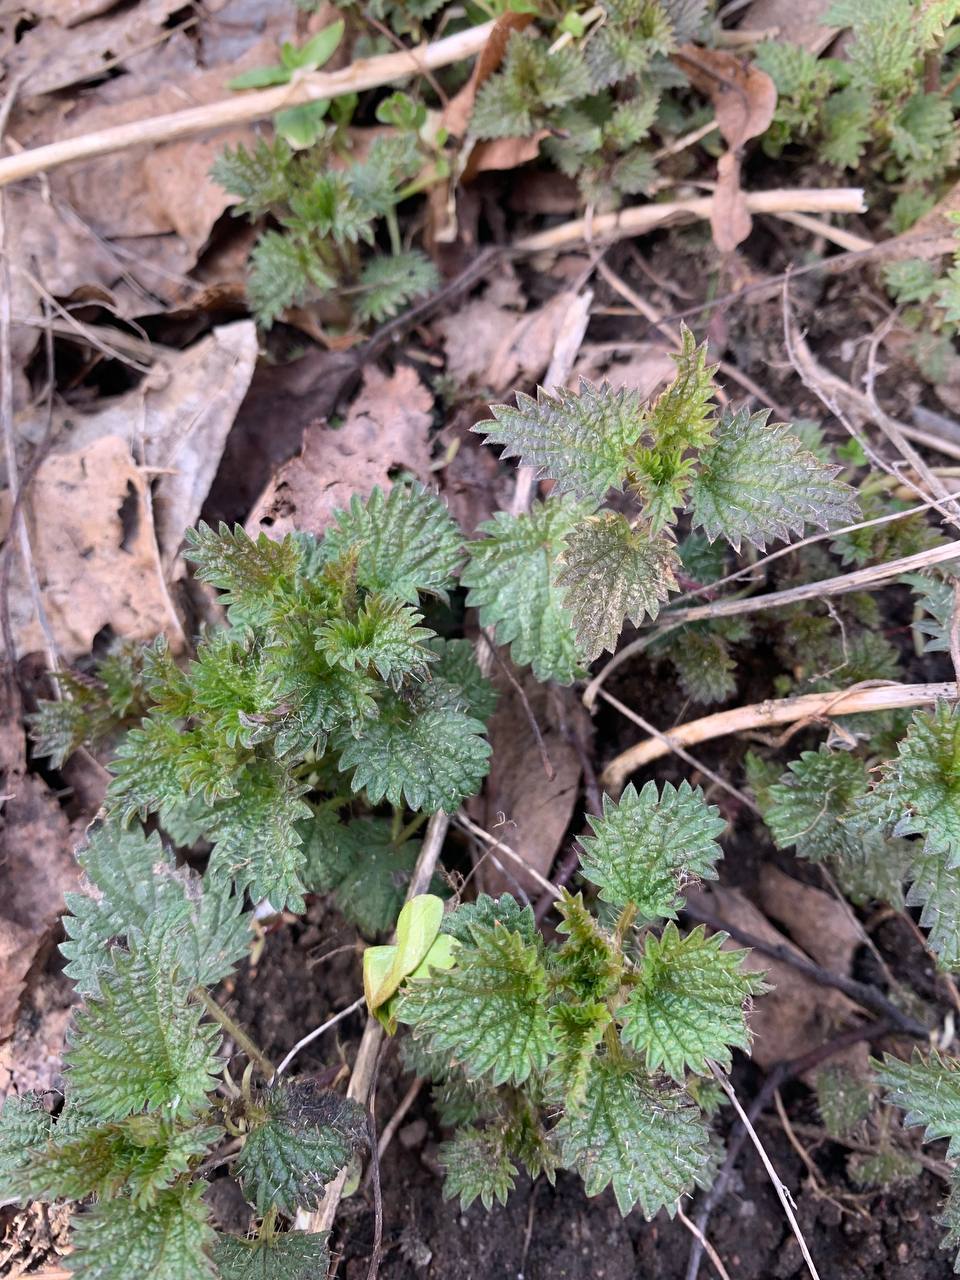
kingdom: Plantae
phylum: Tracheophyta
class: Magnoliopsida
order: Rosales
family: Urticaceae
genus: Urtica
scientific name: Urtica dioica
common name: Common nettle
